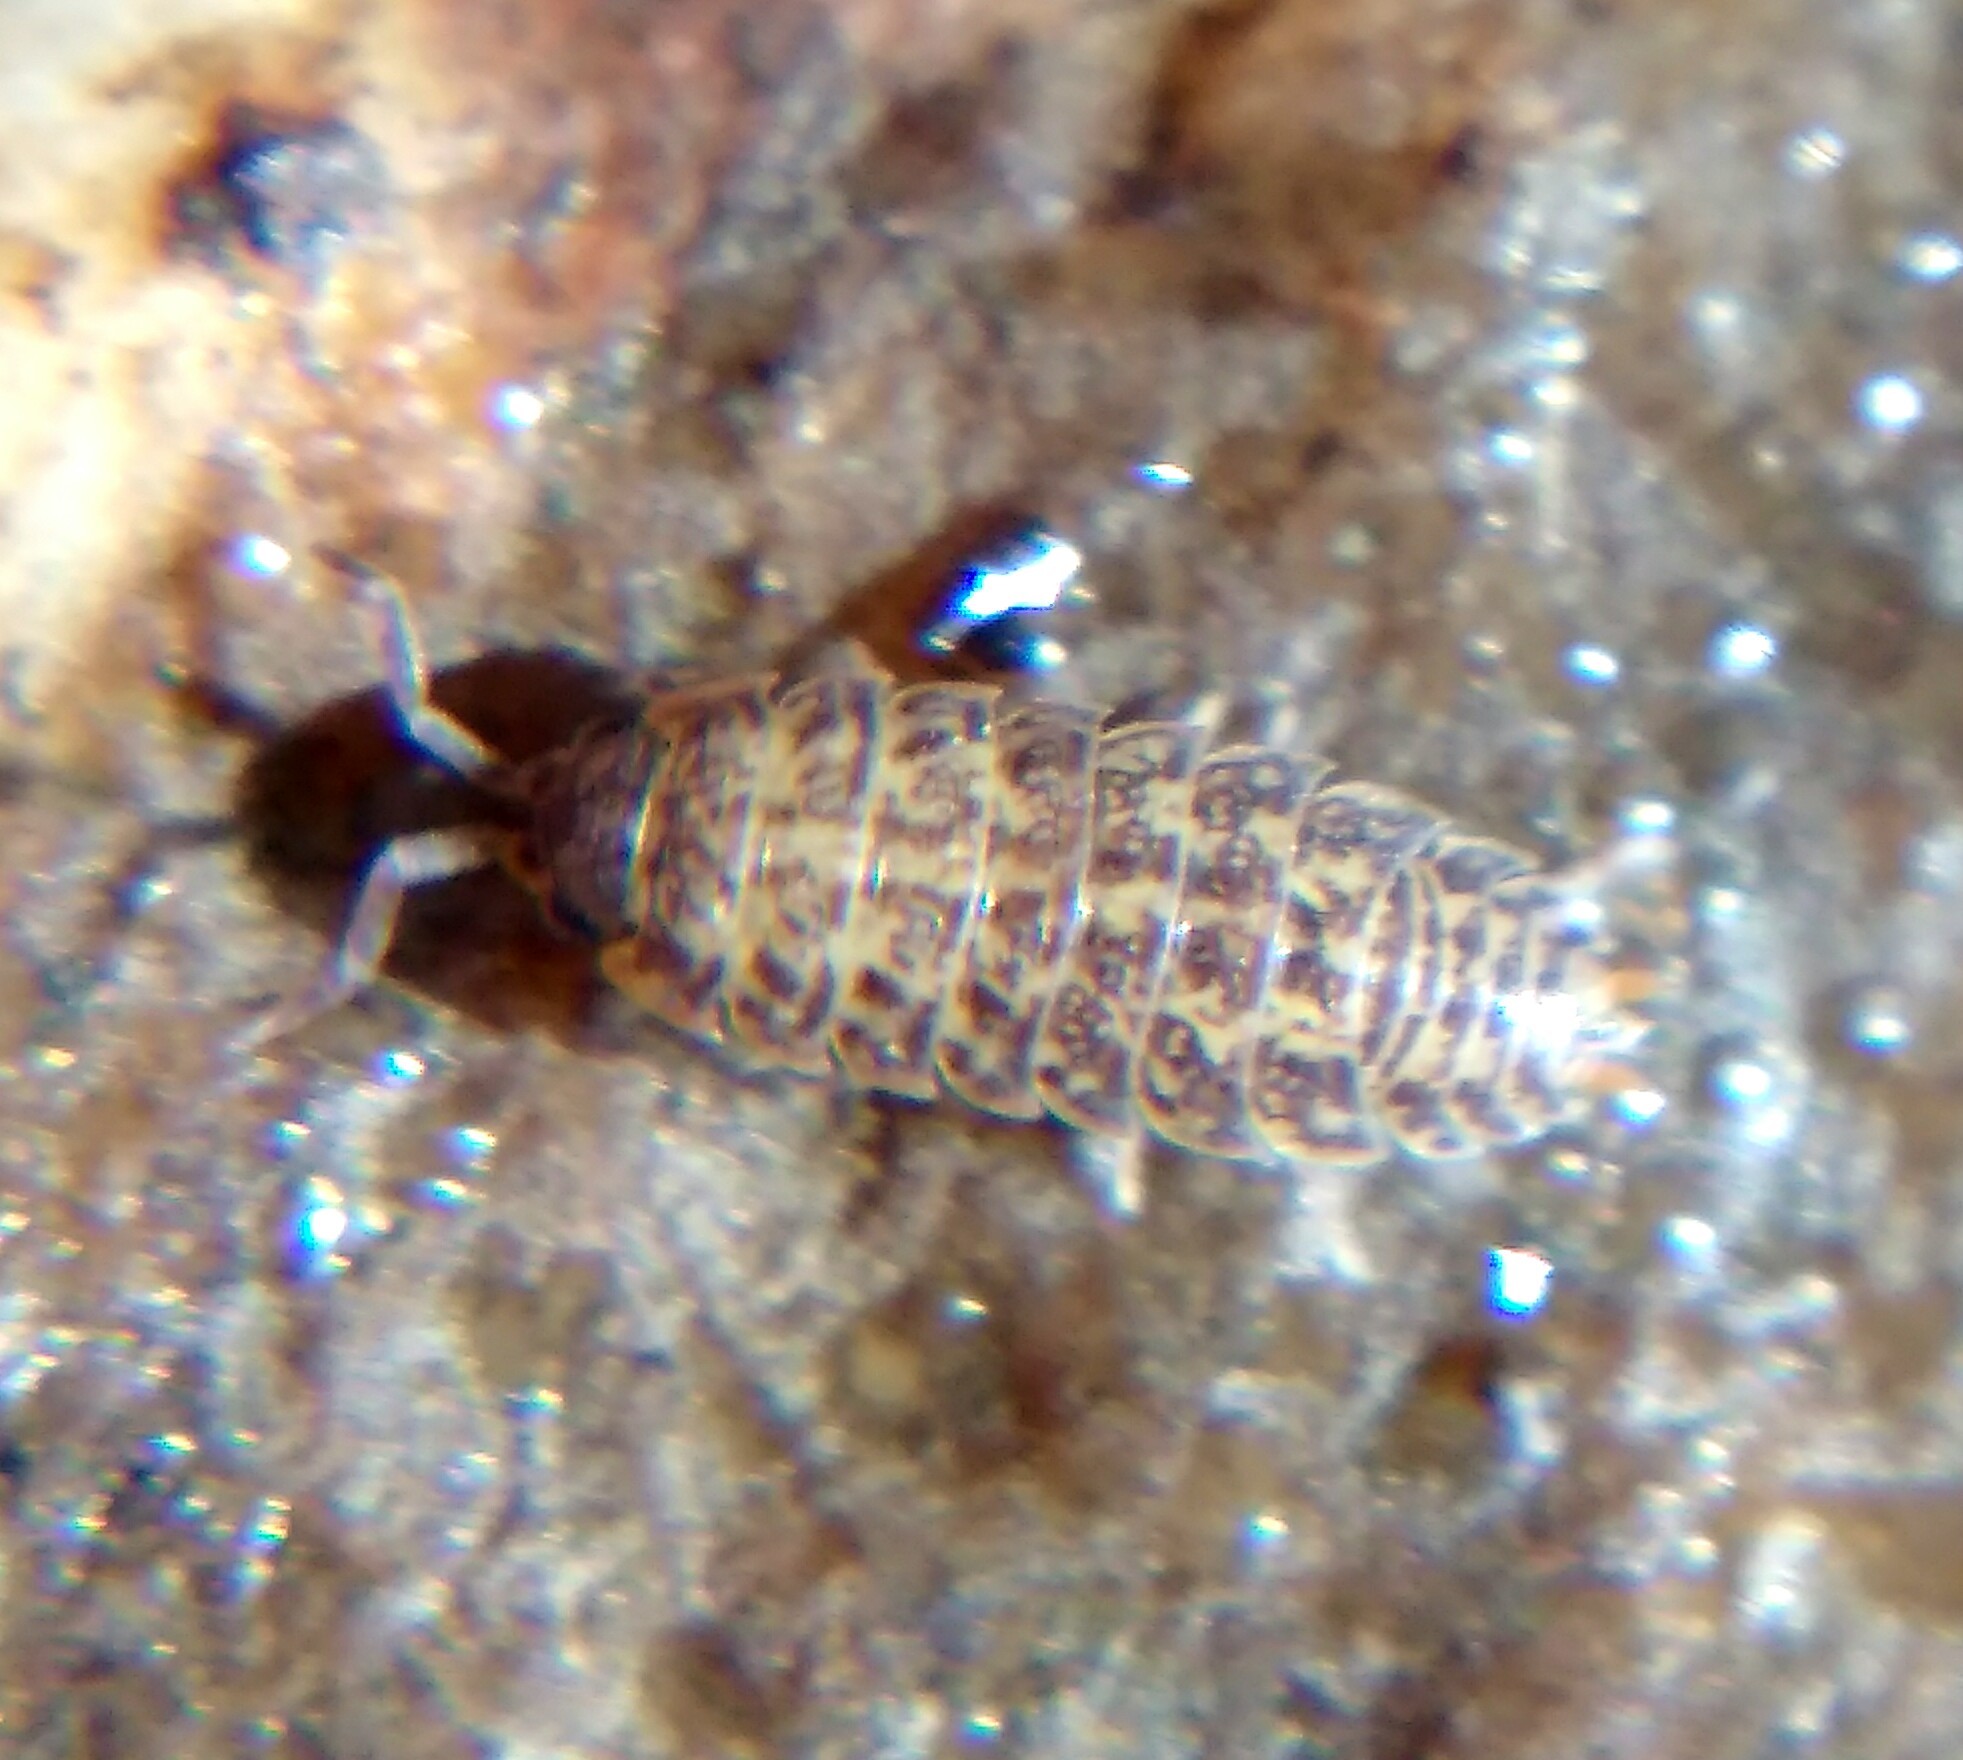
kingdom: Animalia
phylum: Arthropoda
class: Malacostraca
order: Isopoda
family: Trachelipodidae
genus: Porcellium
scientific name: Porcellium collicola
